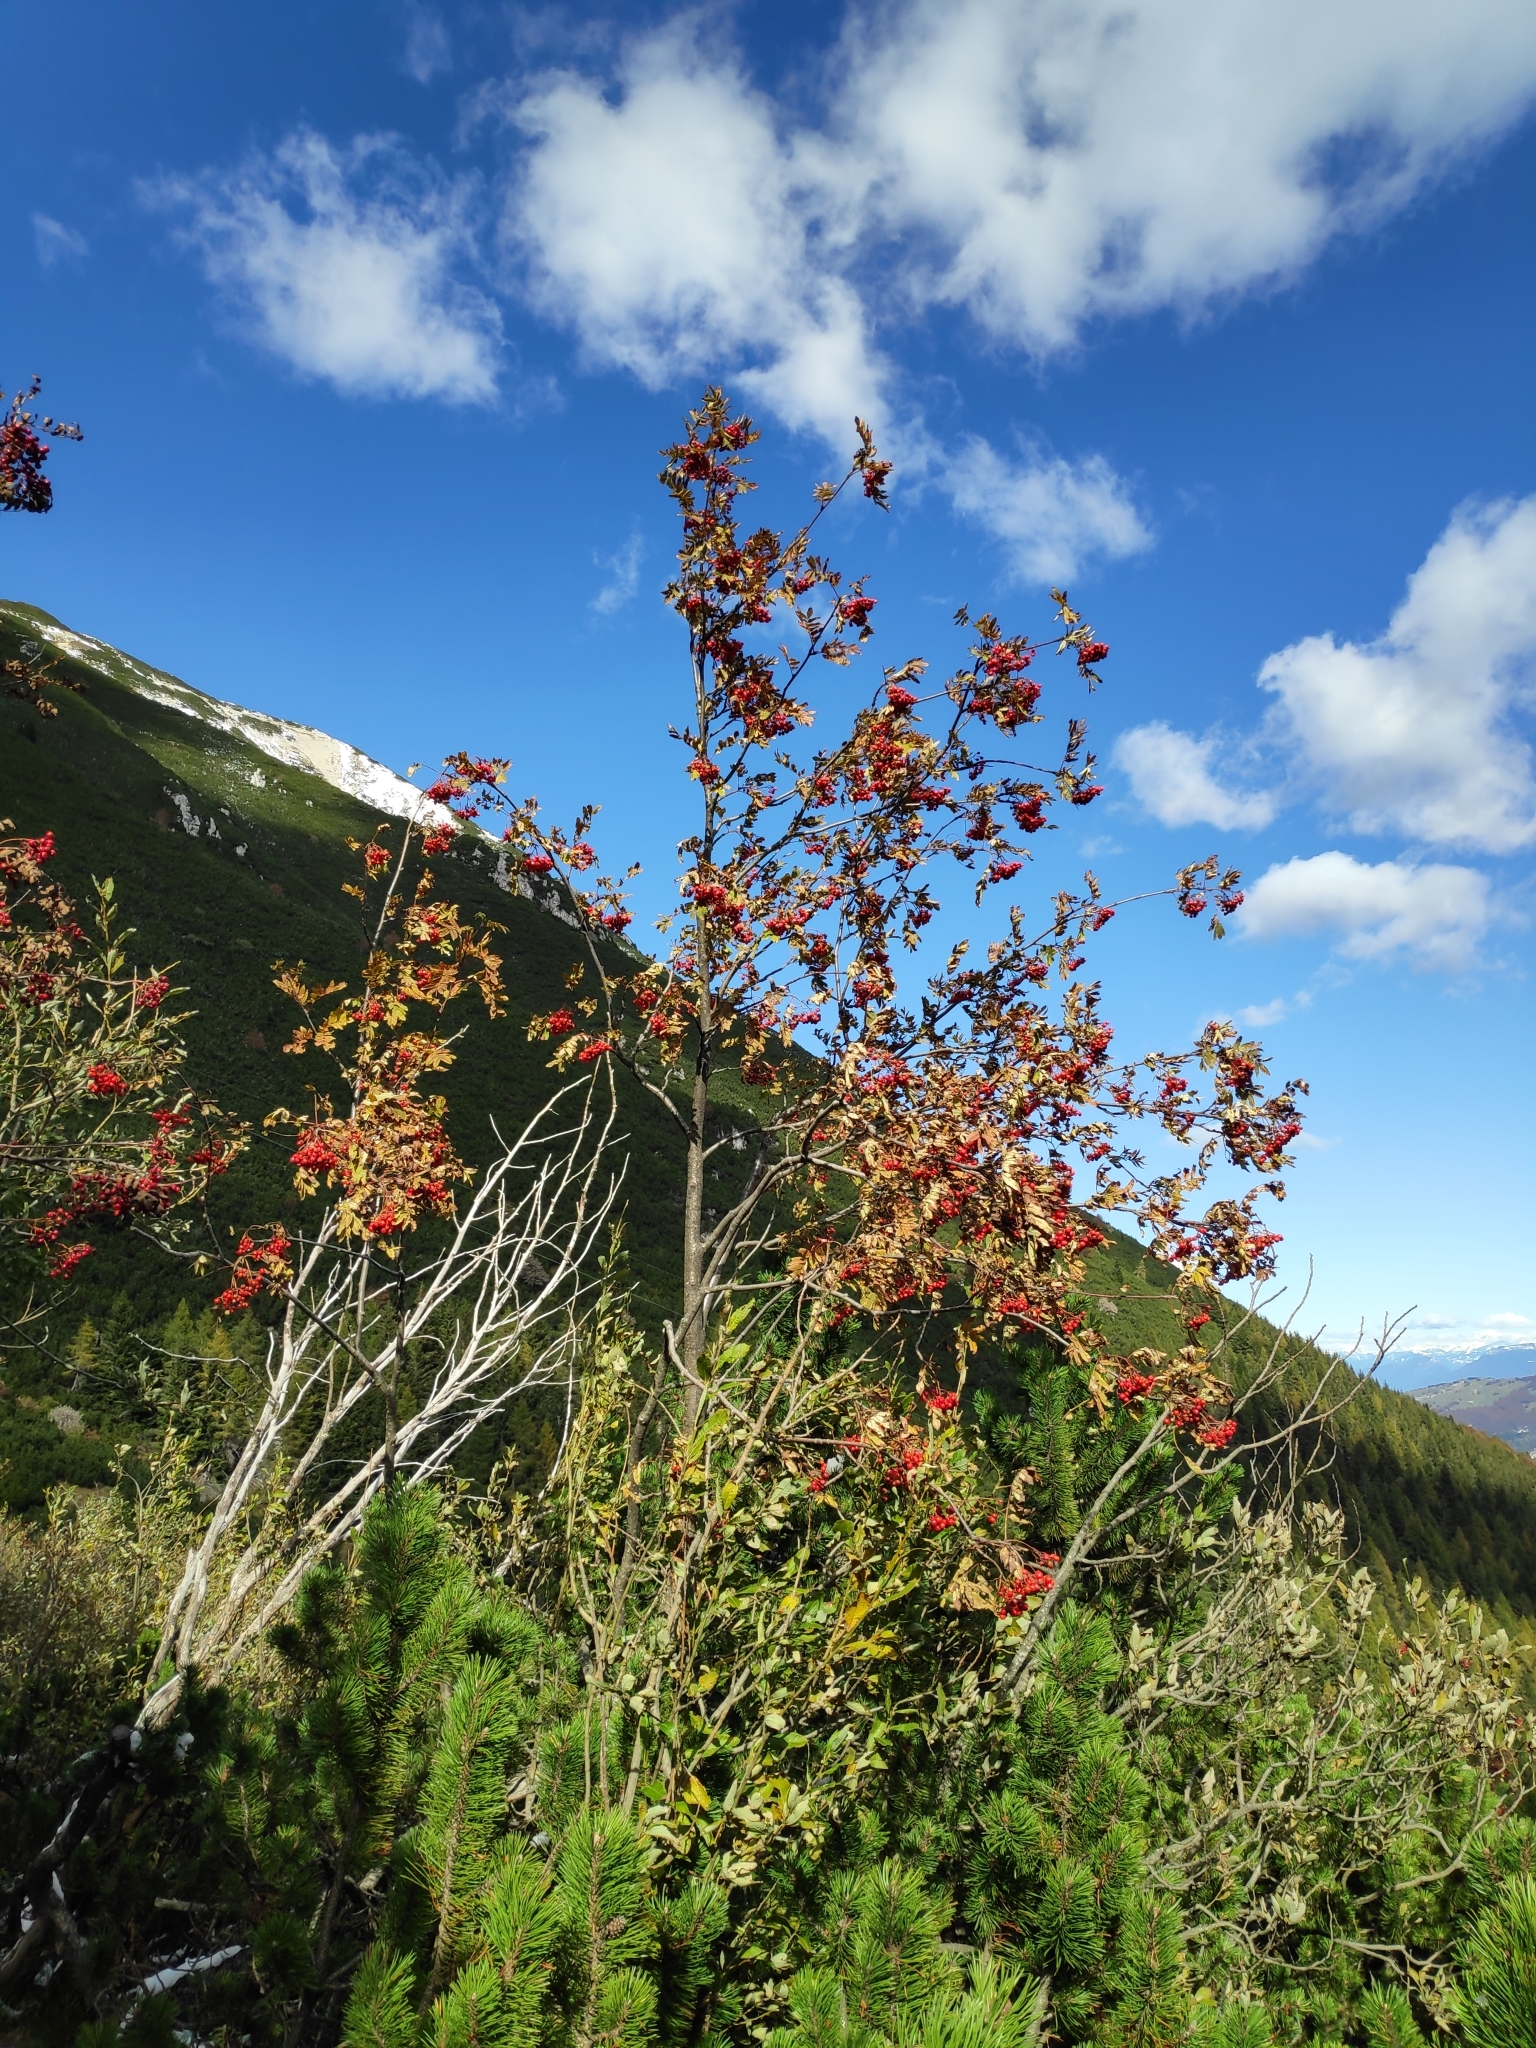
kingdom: Plantae
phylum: Tracheophyta
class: Magnoliopsida
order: Rosales
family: Rosaceae
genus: Sorbus
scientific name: Sorbus aucuparia
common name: Rowan
